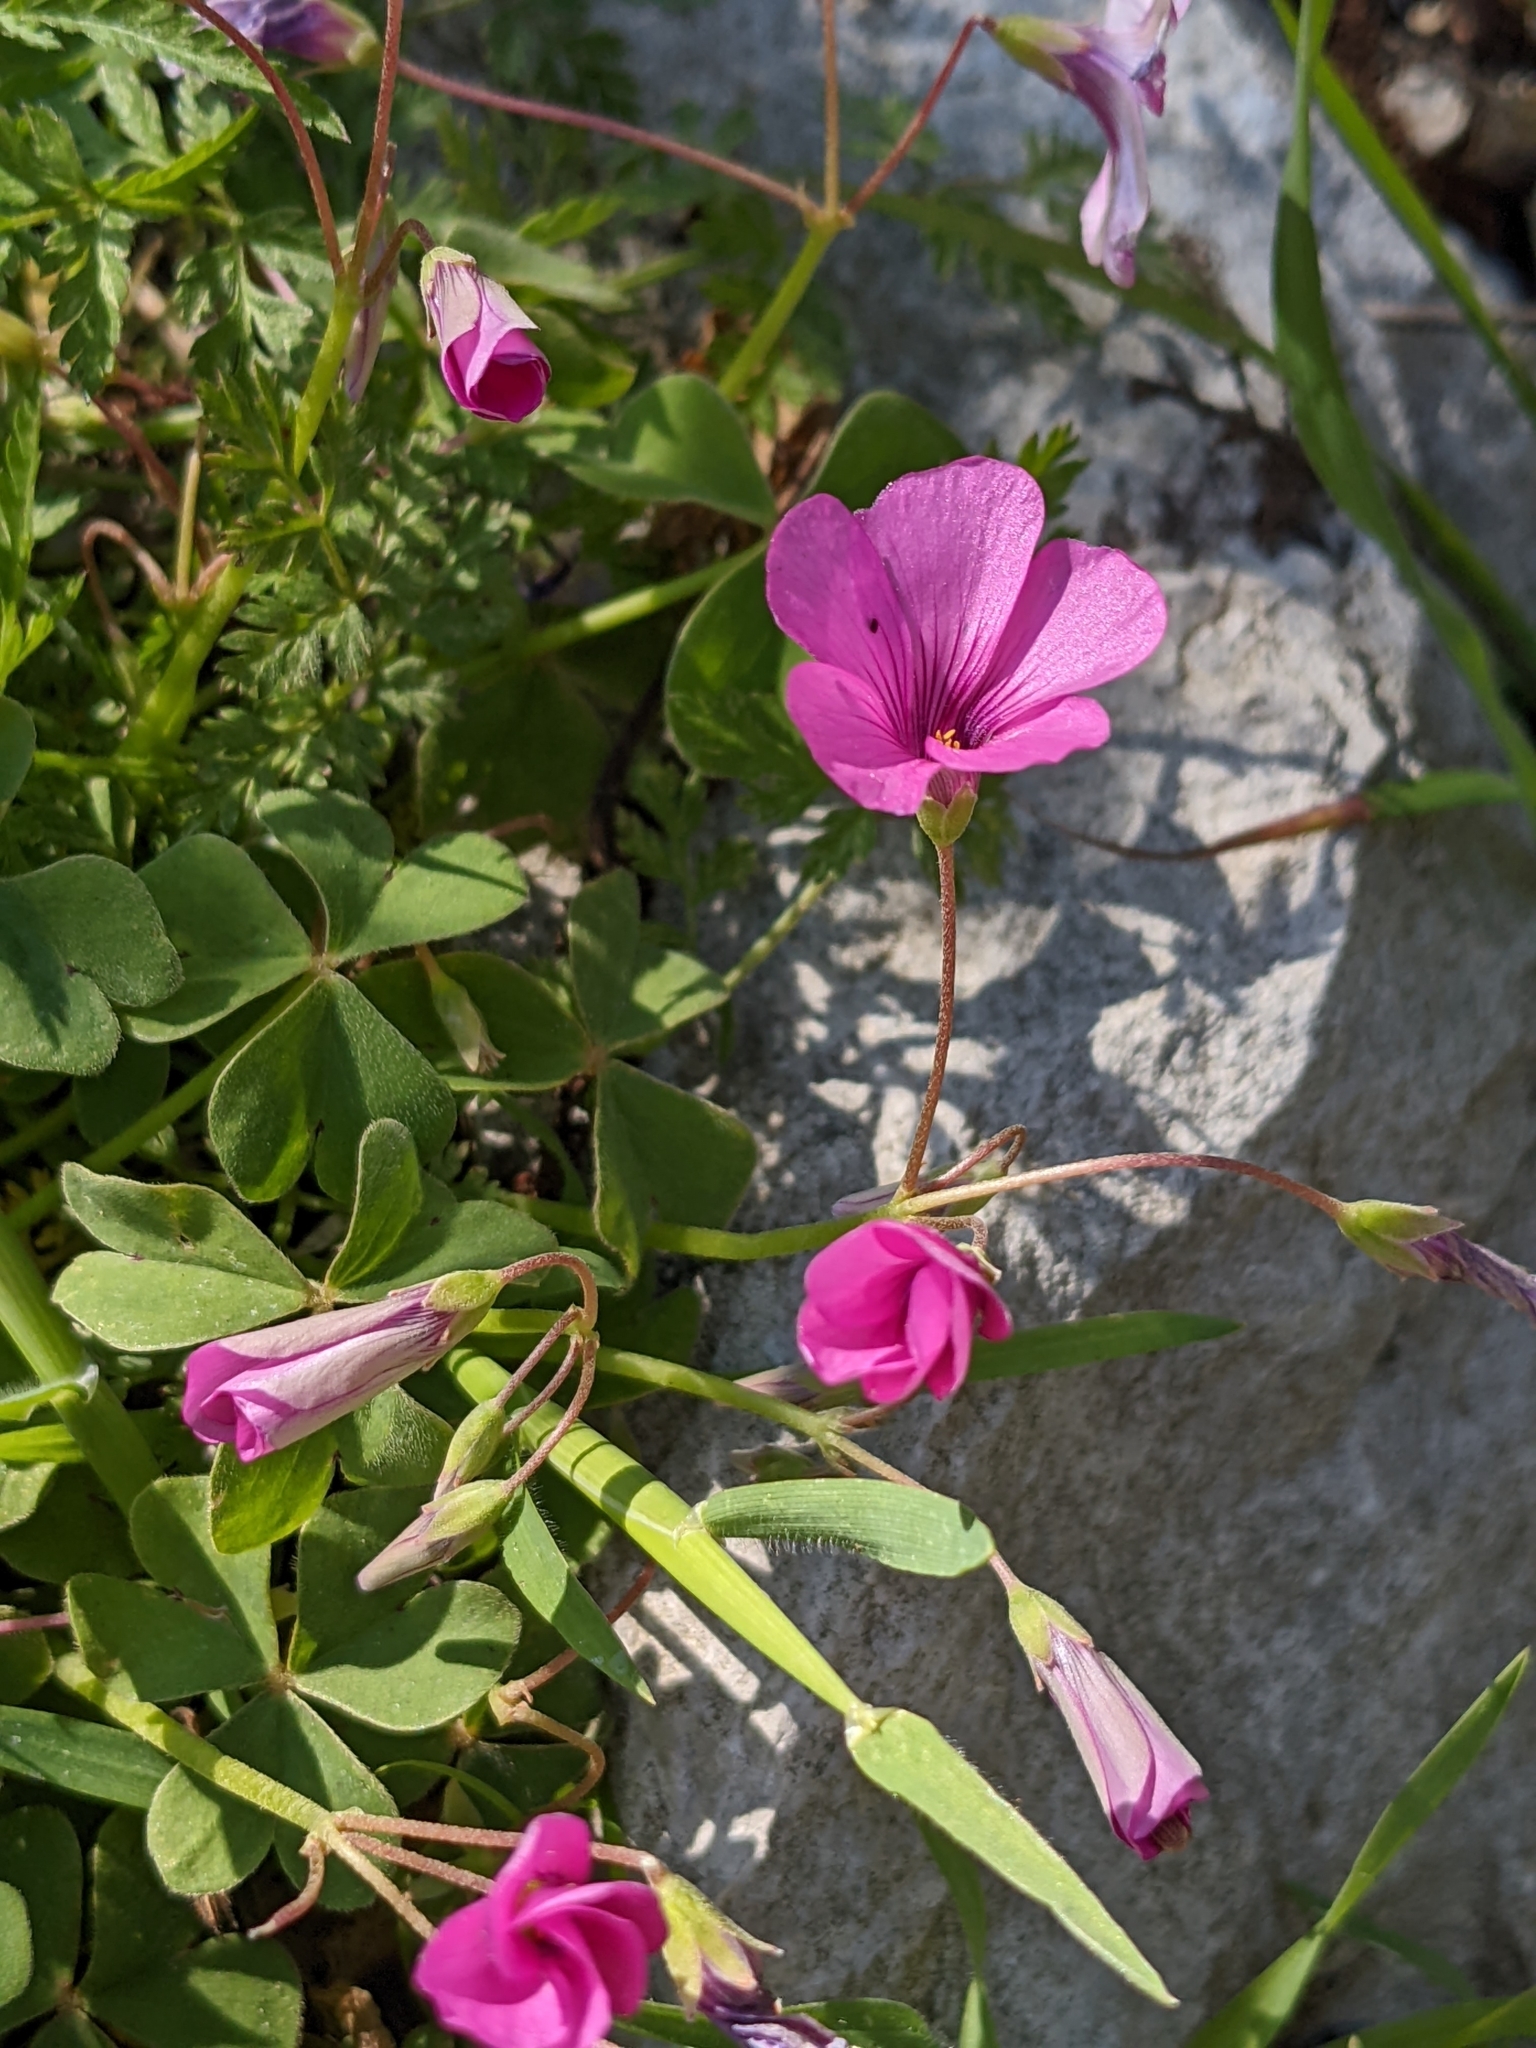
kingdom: Plantae
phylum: Tracheophyta
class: Magnoliopsida
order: Oxalidales
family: Oxalidaceae
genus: Oxalis
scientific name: Oxalis articulata
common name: Pink-sorrel
